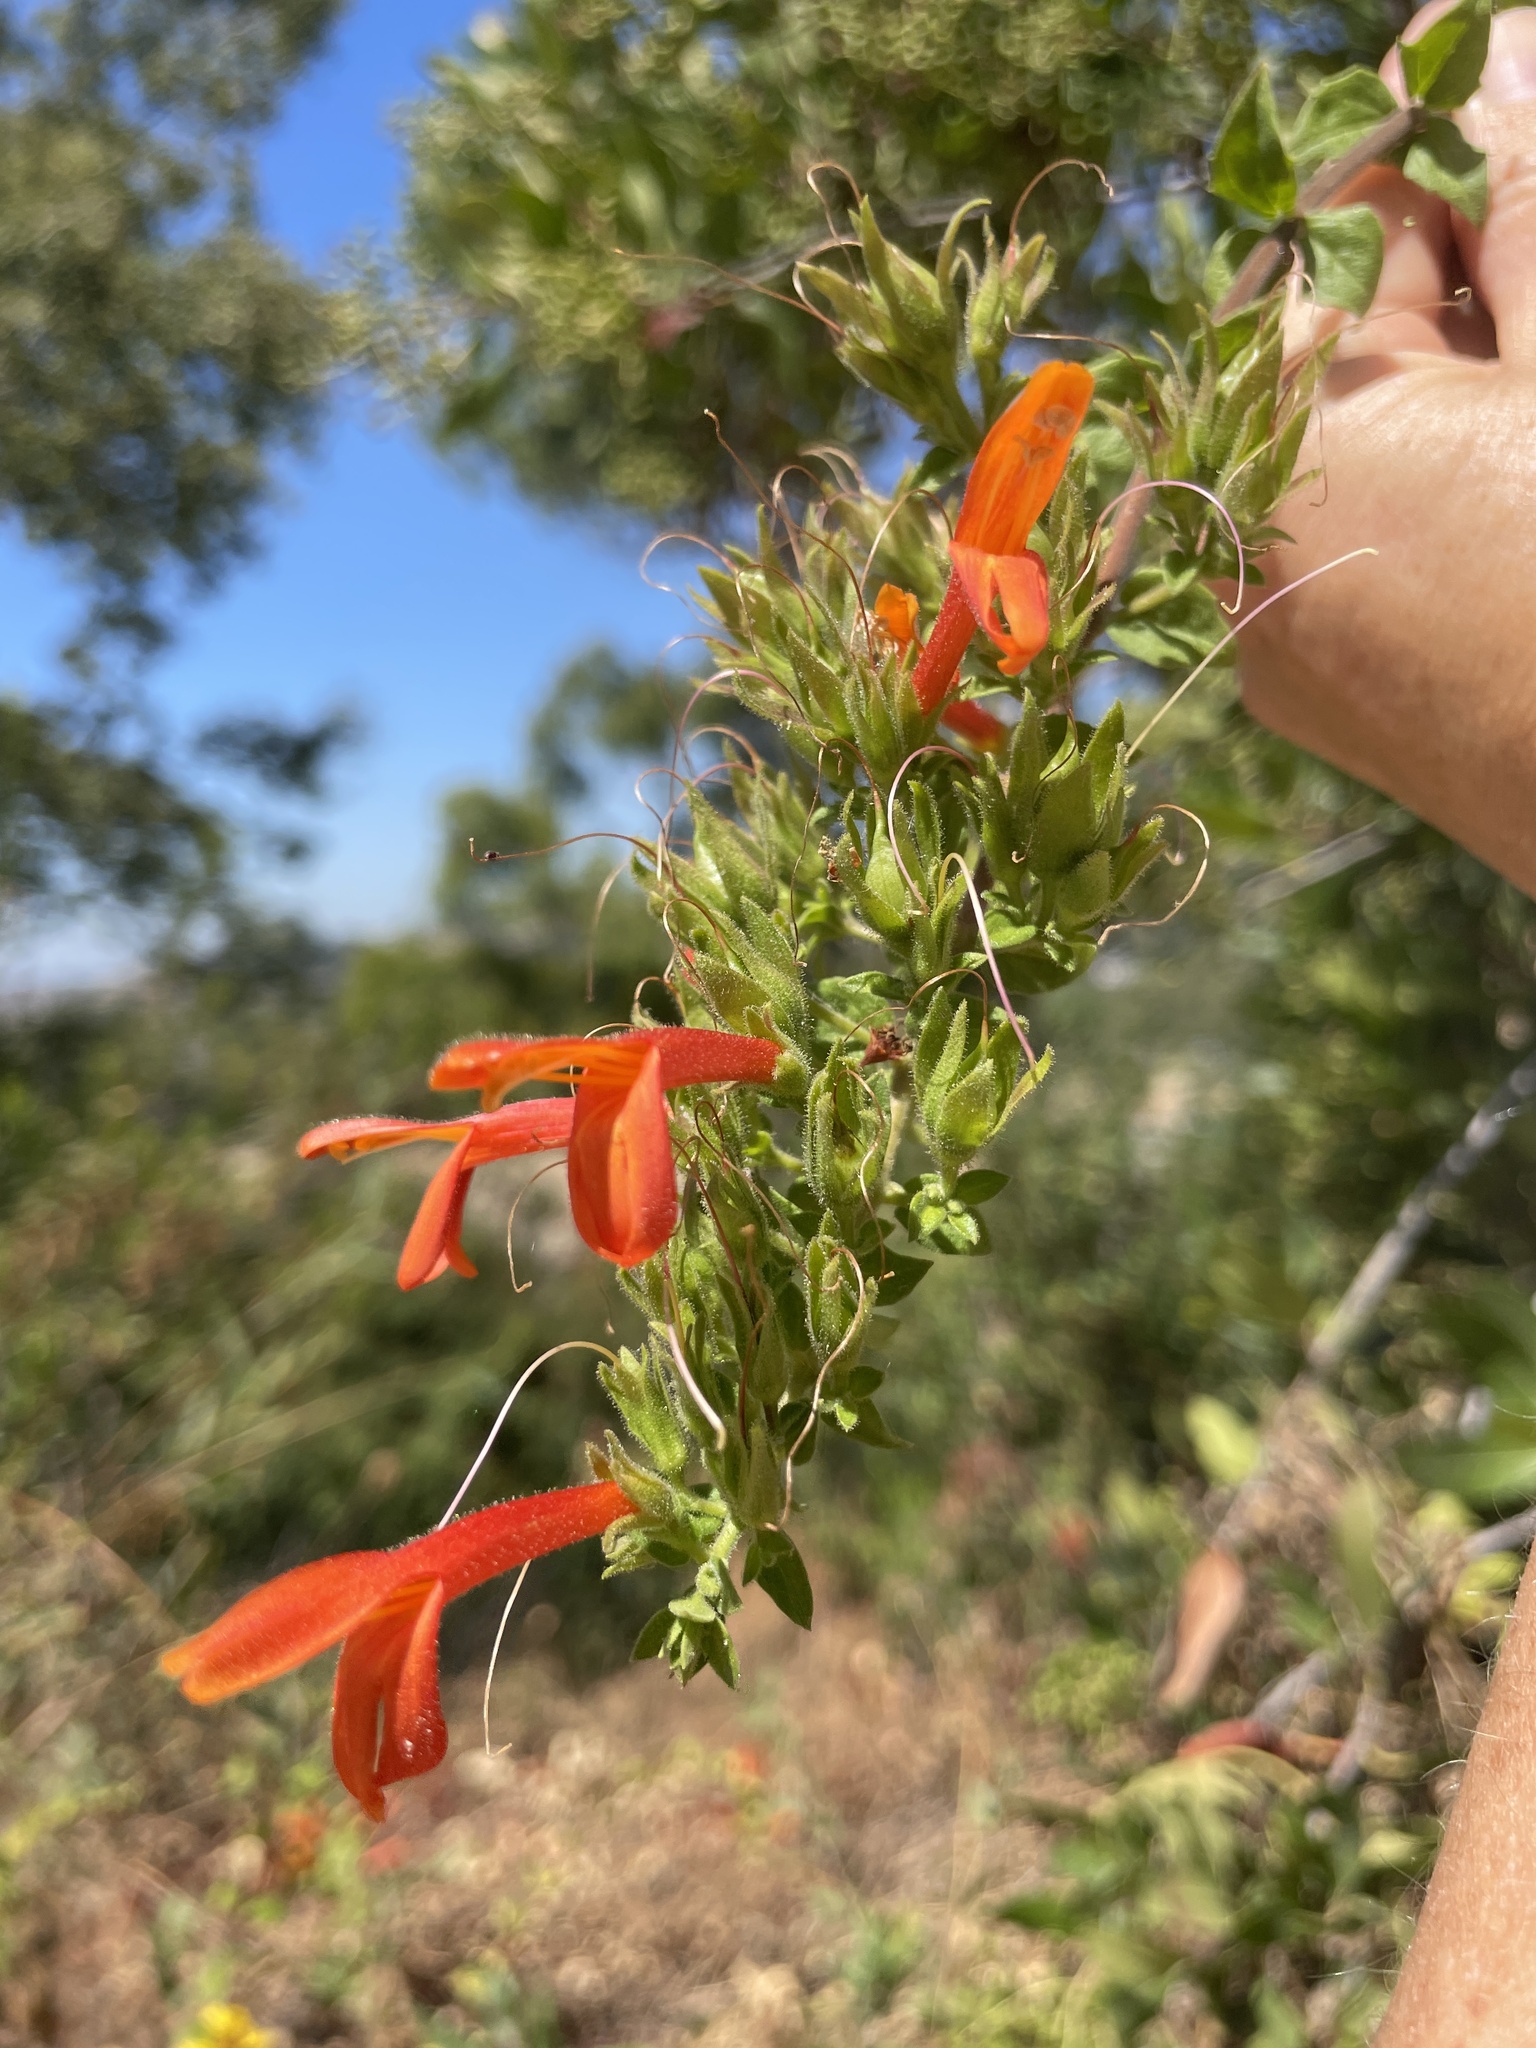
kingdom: Plantae
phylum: Tracheophyta
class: Magnoliopsida
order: Lamiales
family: Plantaginaceae
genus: Keckiella
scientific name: Keckiella cordifolia
